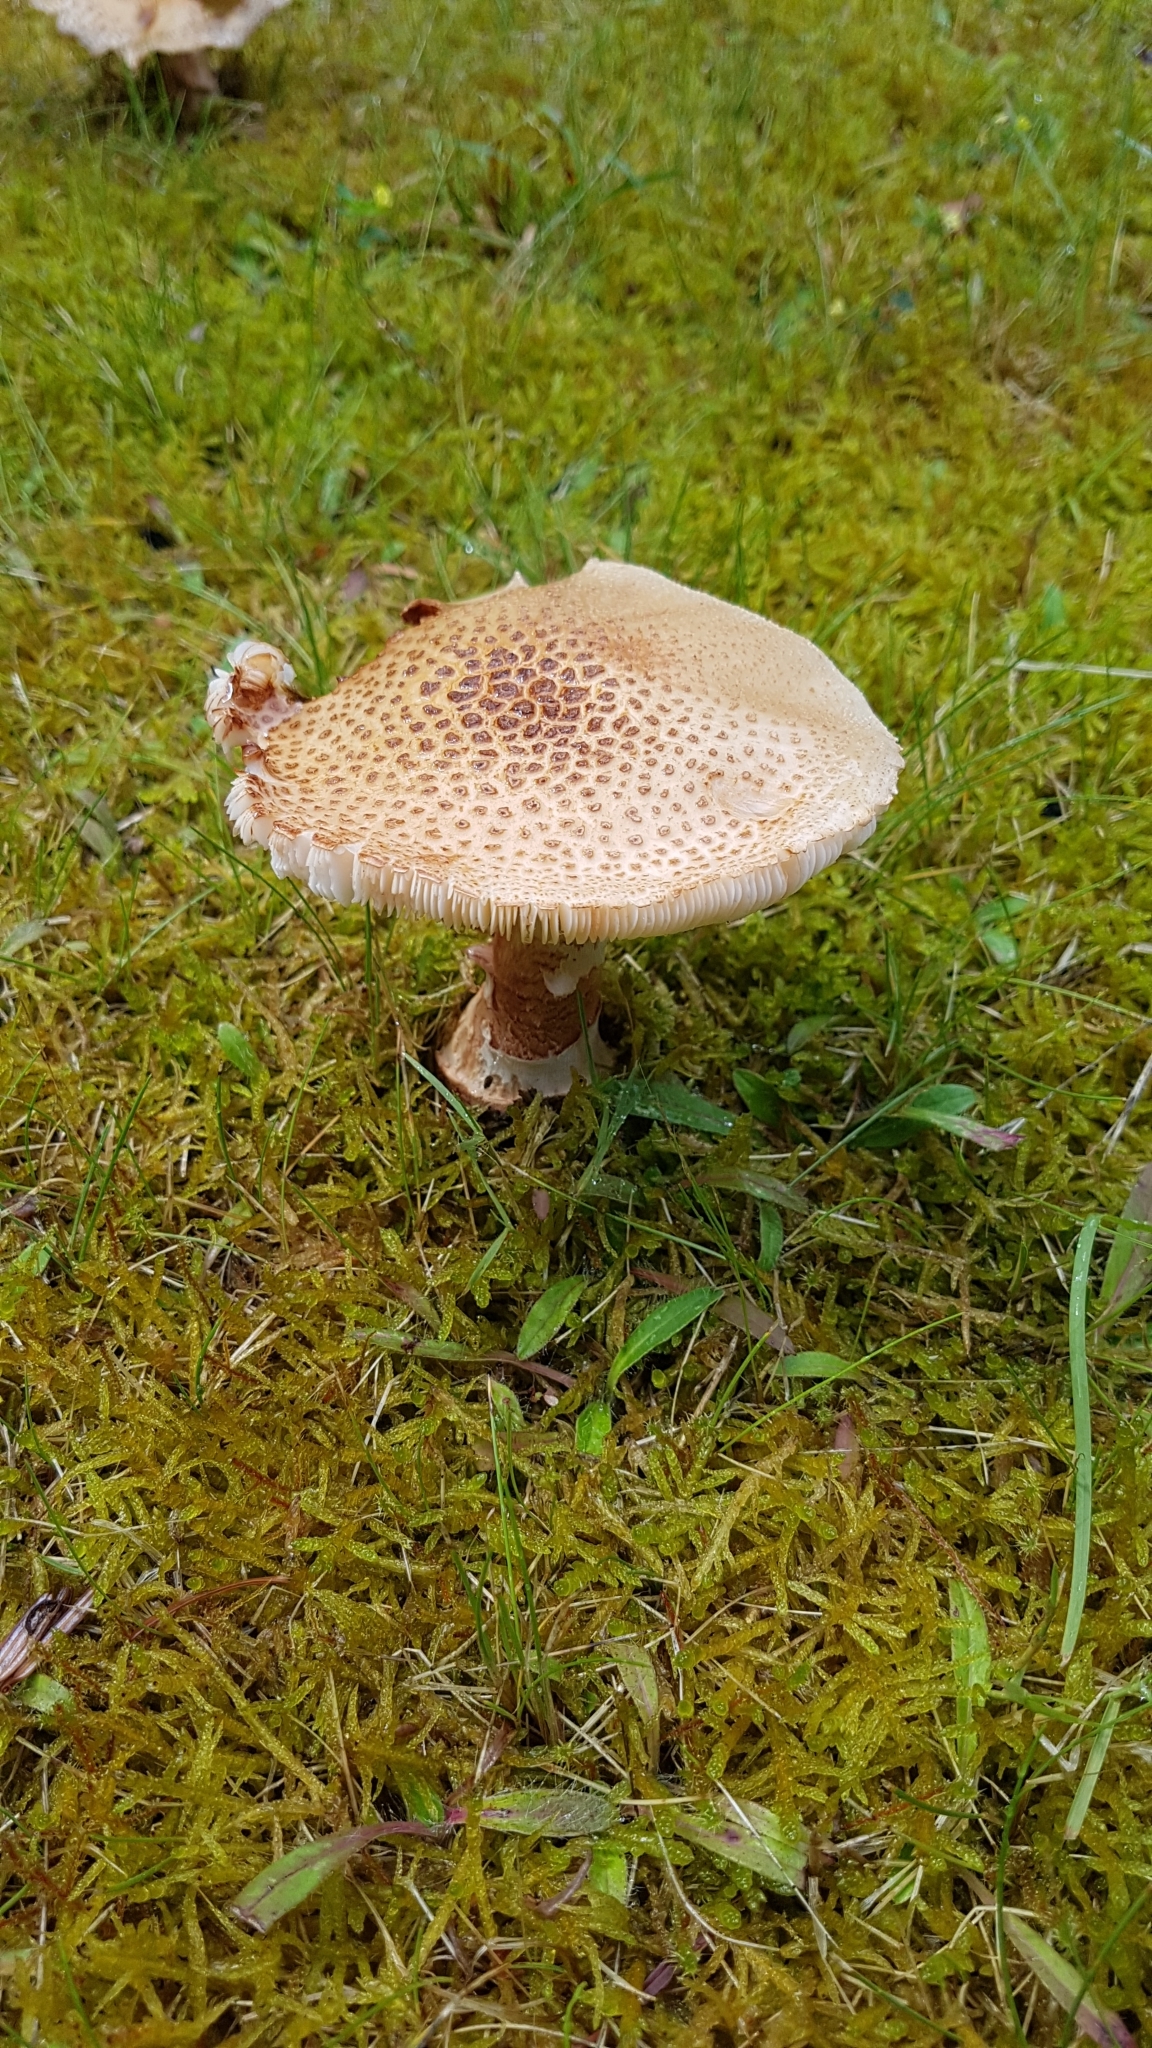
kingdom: Fungi
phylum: Basidiomycota
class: Agaricomycetes
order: Agaricales
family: Amanitaceae
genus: Amanita
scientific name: Amanita rubescens
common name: Blusher
